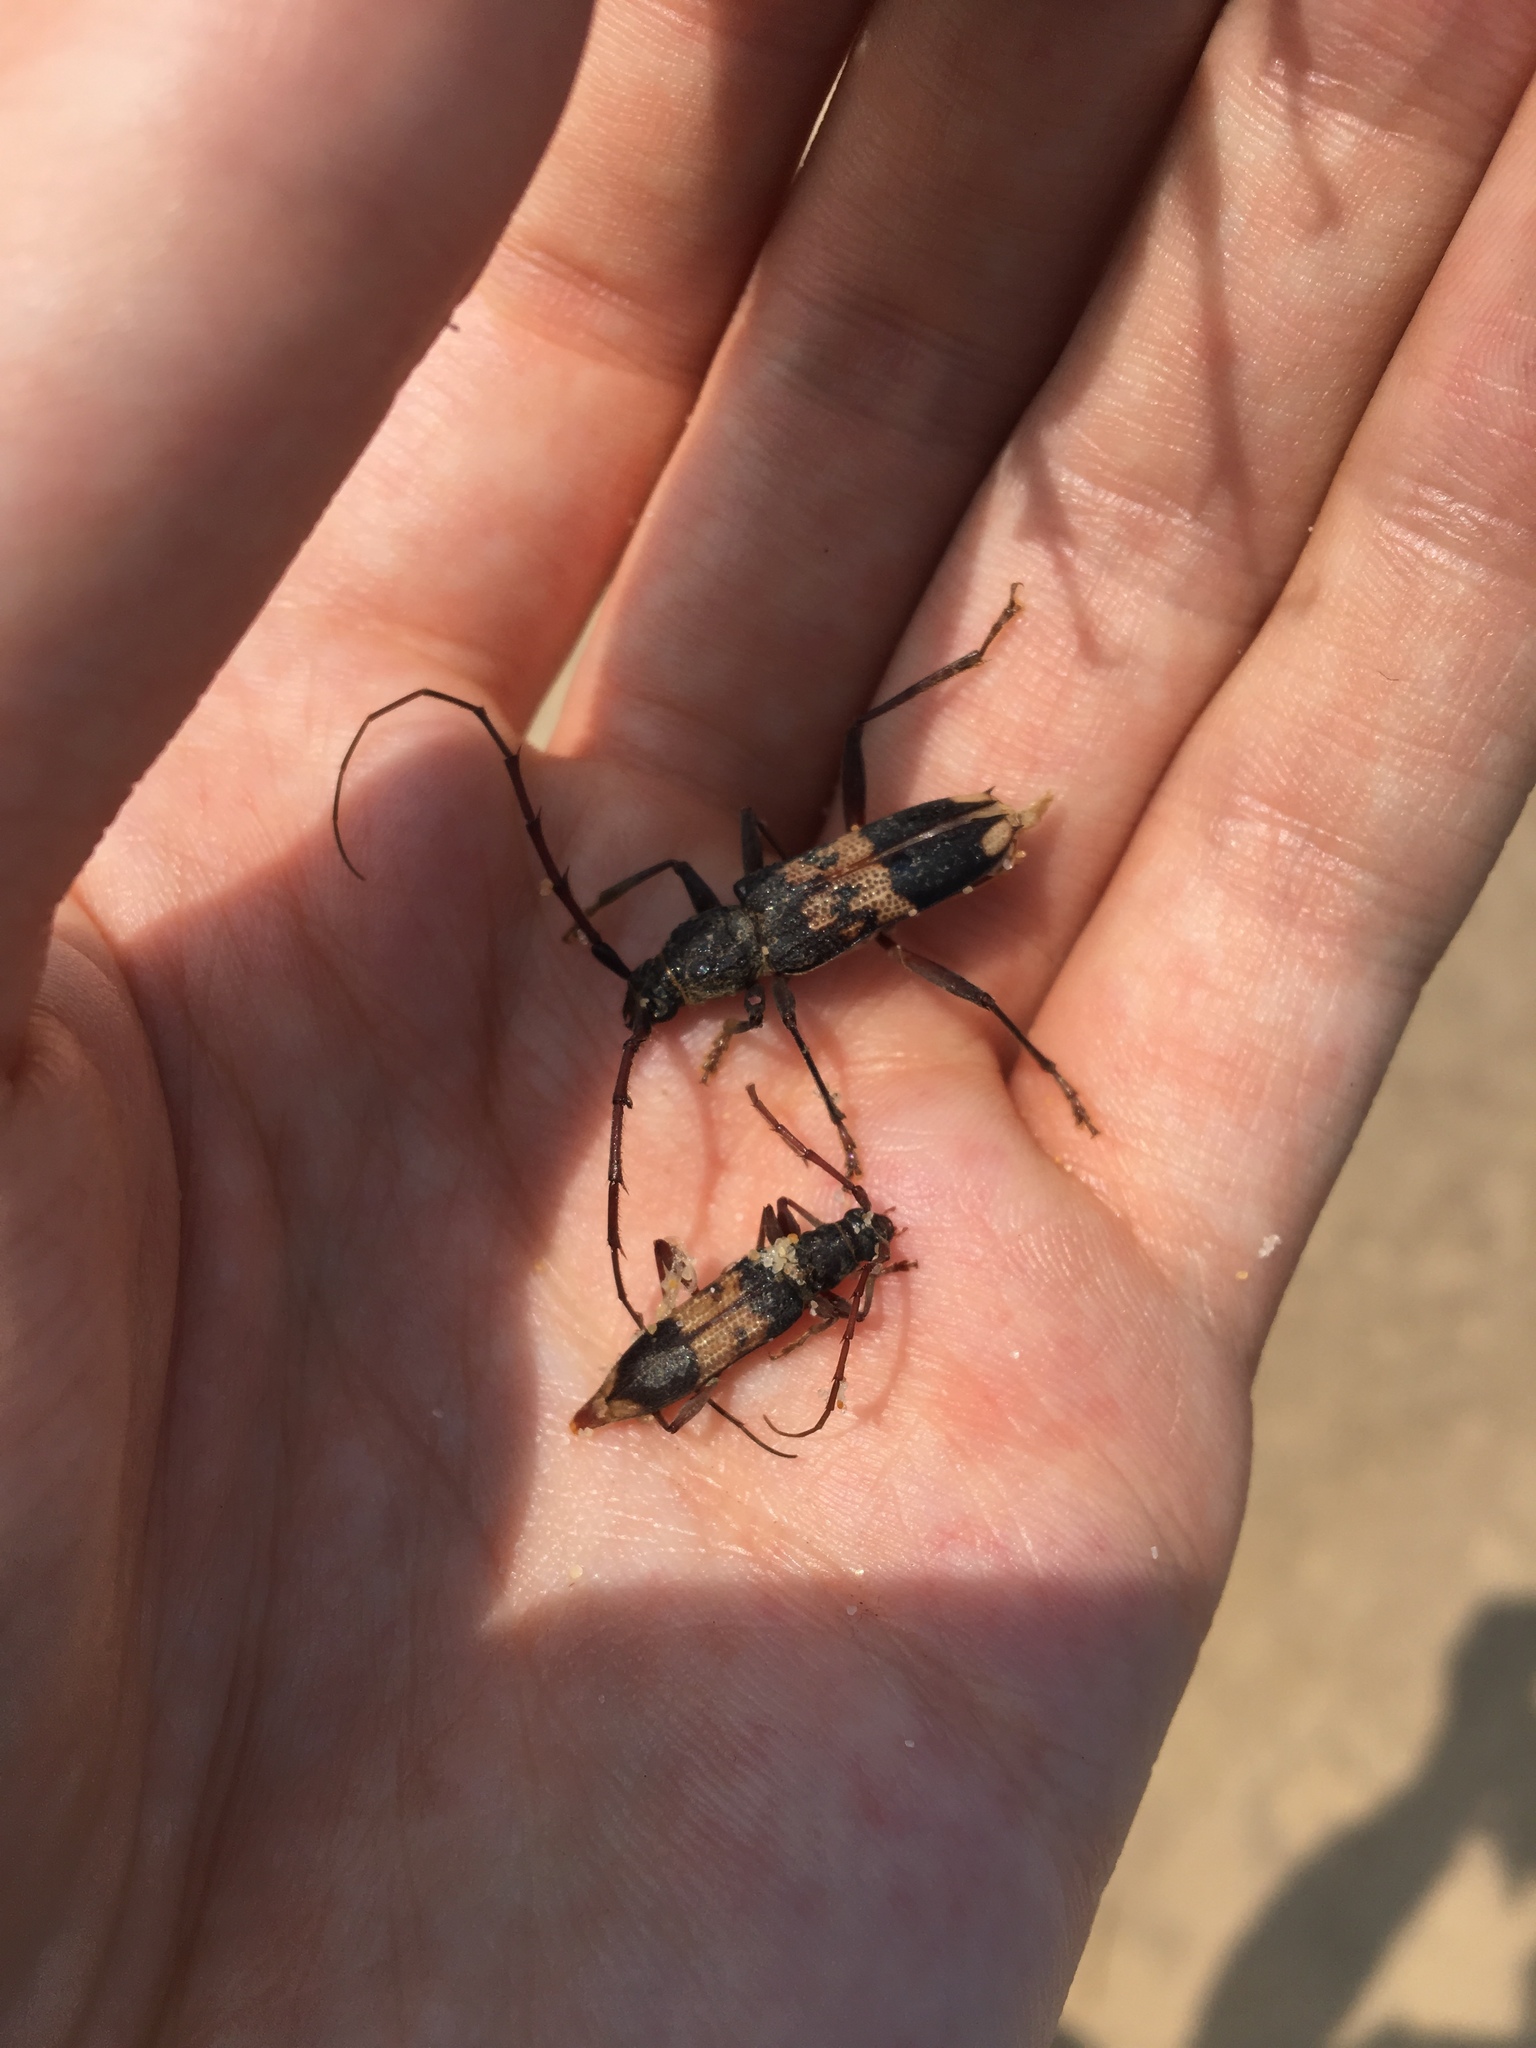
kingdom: Animalia
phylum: Arthropoda
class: Insecta
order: Coleoptera
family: Cerambycidae
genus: Phoracantha
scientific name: Phoracantha semipunctata
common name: Eucalyptus longhorn borer
